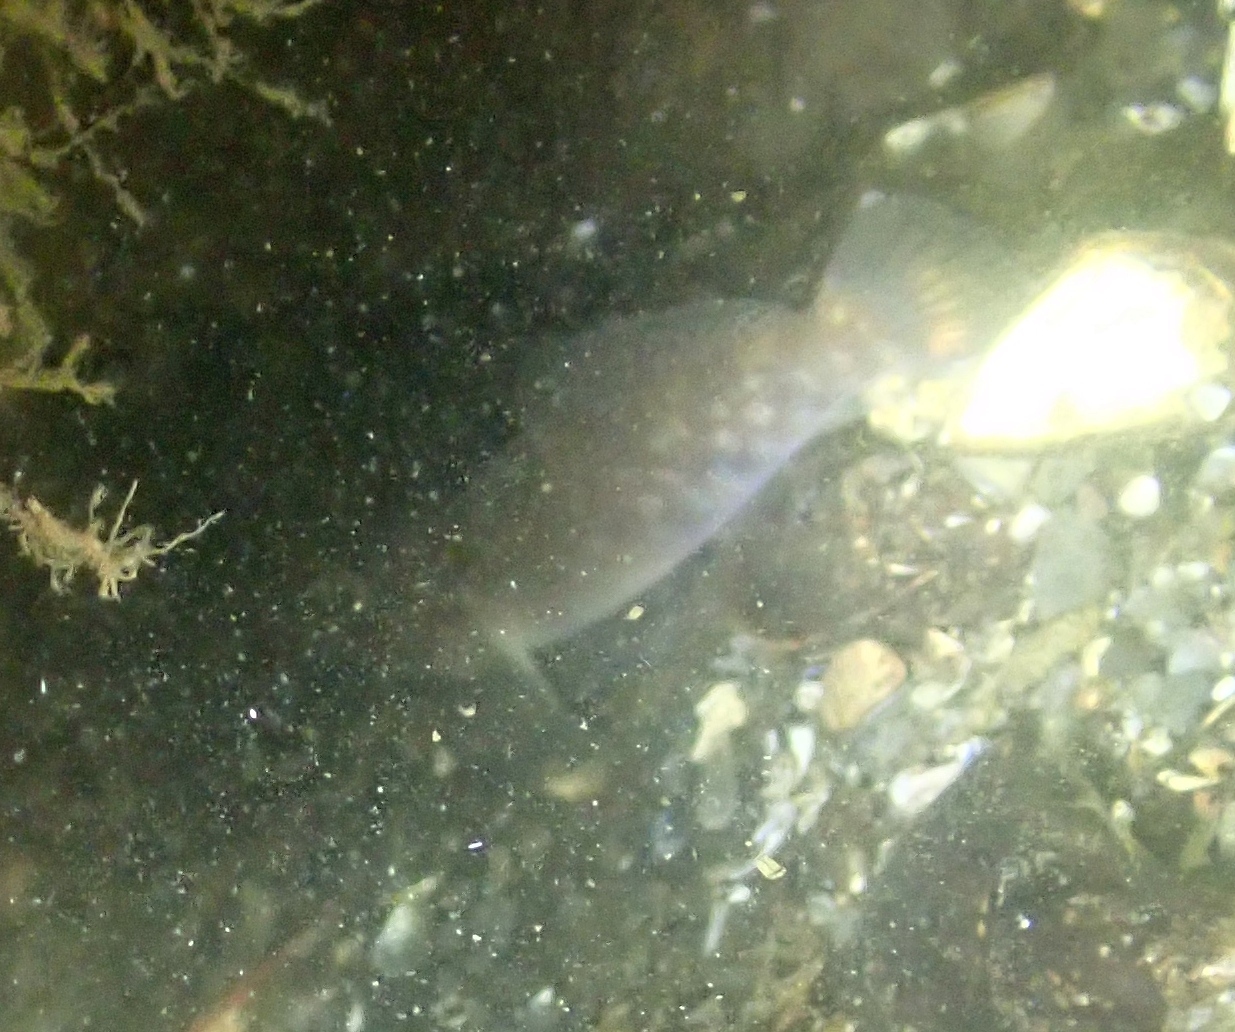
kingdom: Animalia
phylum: Chordata
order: Perciformes
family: Gobiidae
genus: Neogobius
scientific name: Neogobius melanostomus
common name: Round goby
